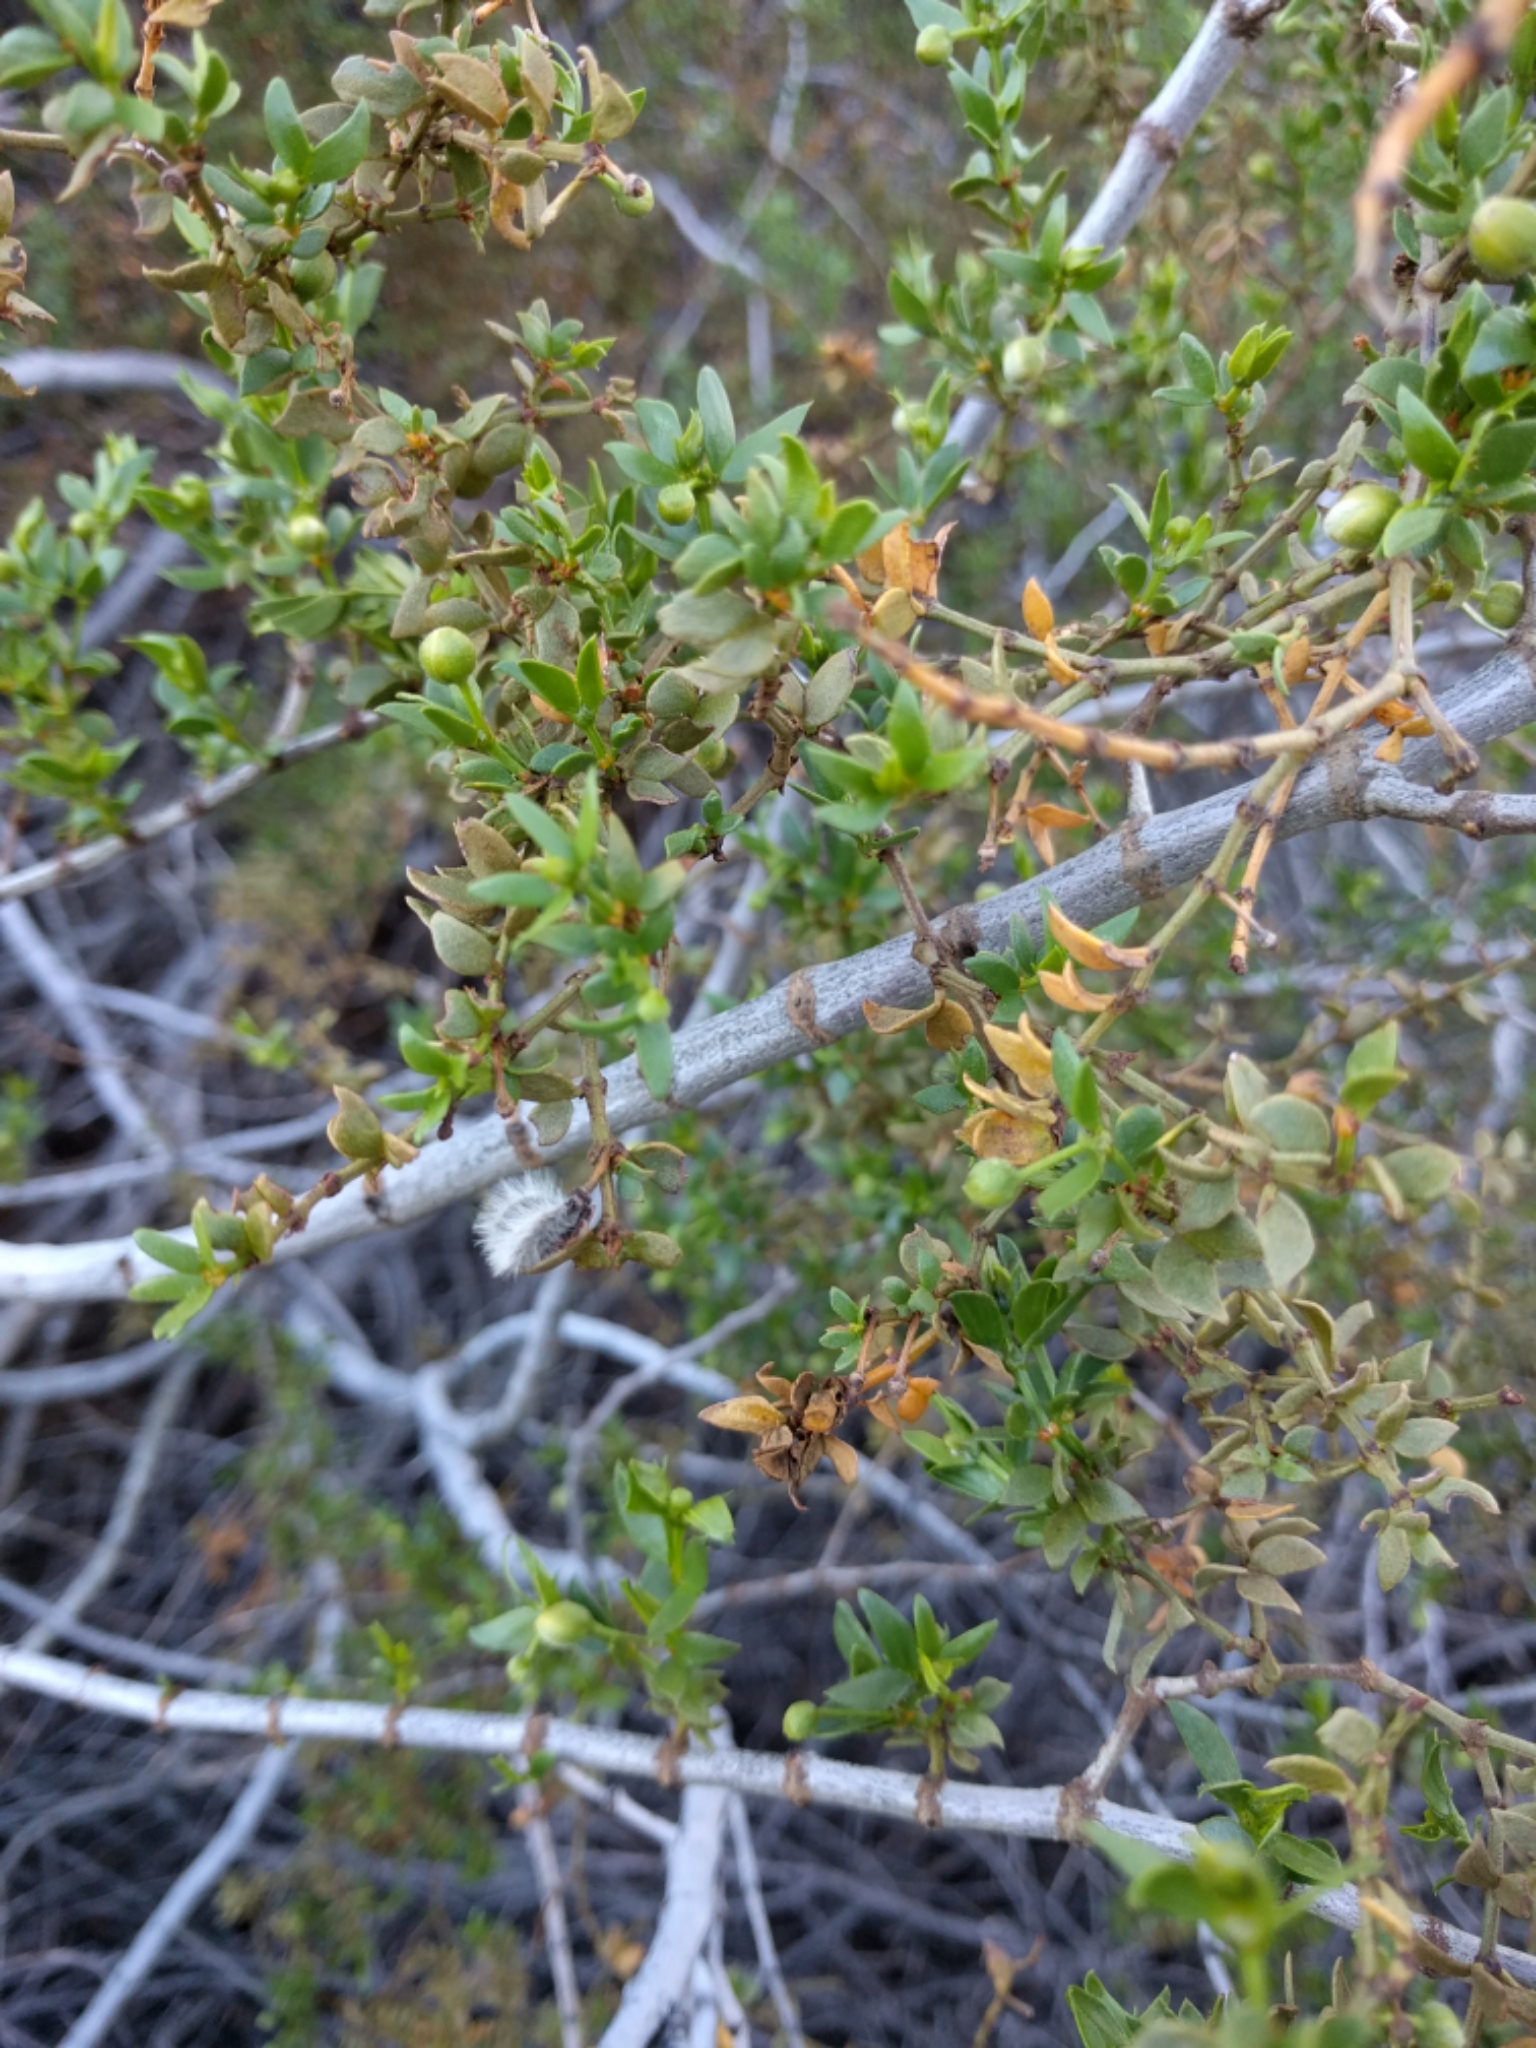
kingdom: Plantae
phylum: Tracheophyta
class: Magnoliopsida
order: Zygophyllales
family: Zygophyllaceae
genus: Larrea
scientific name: Larrea tridentata
